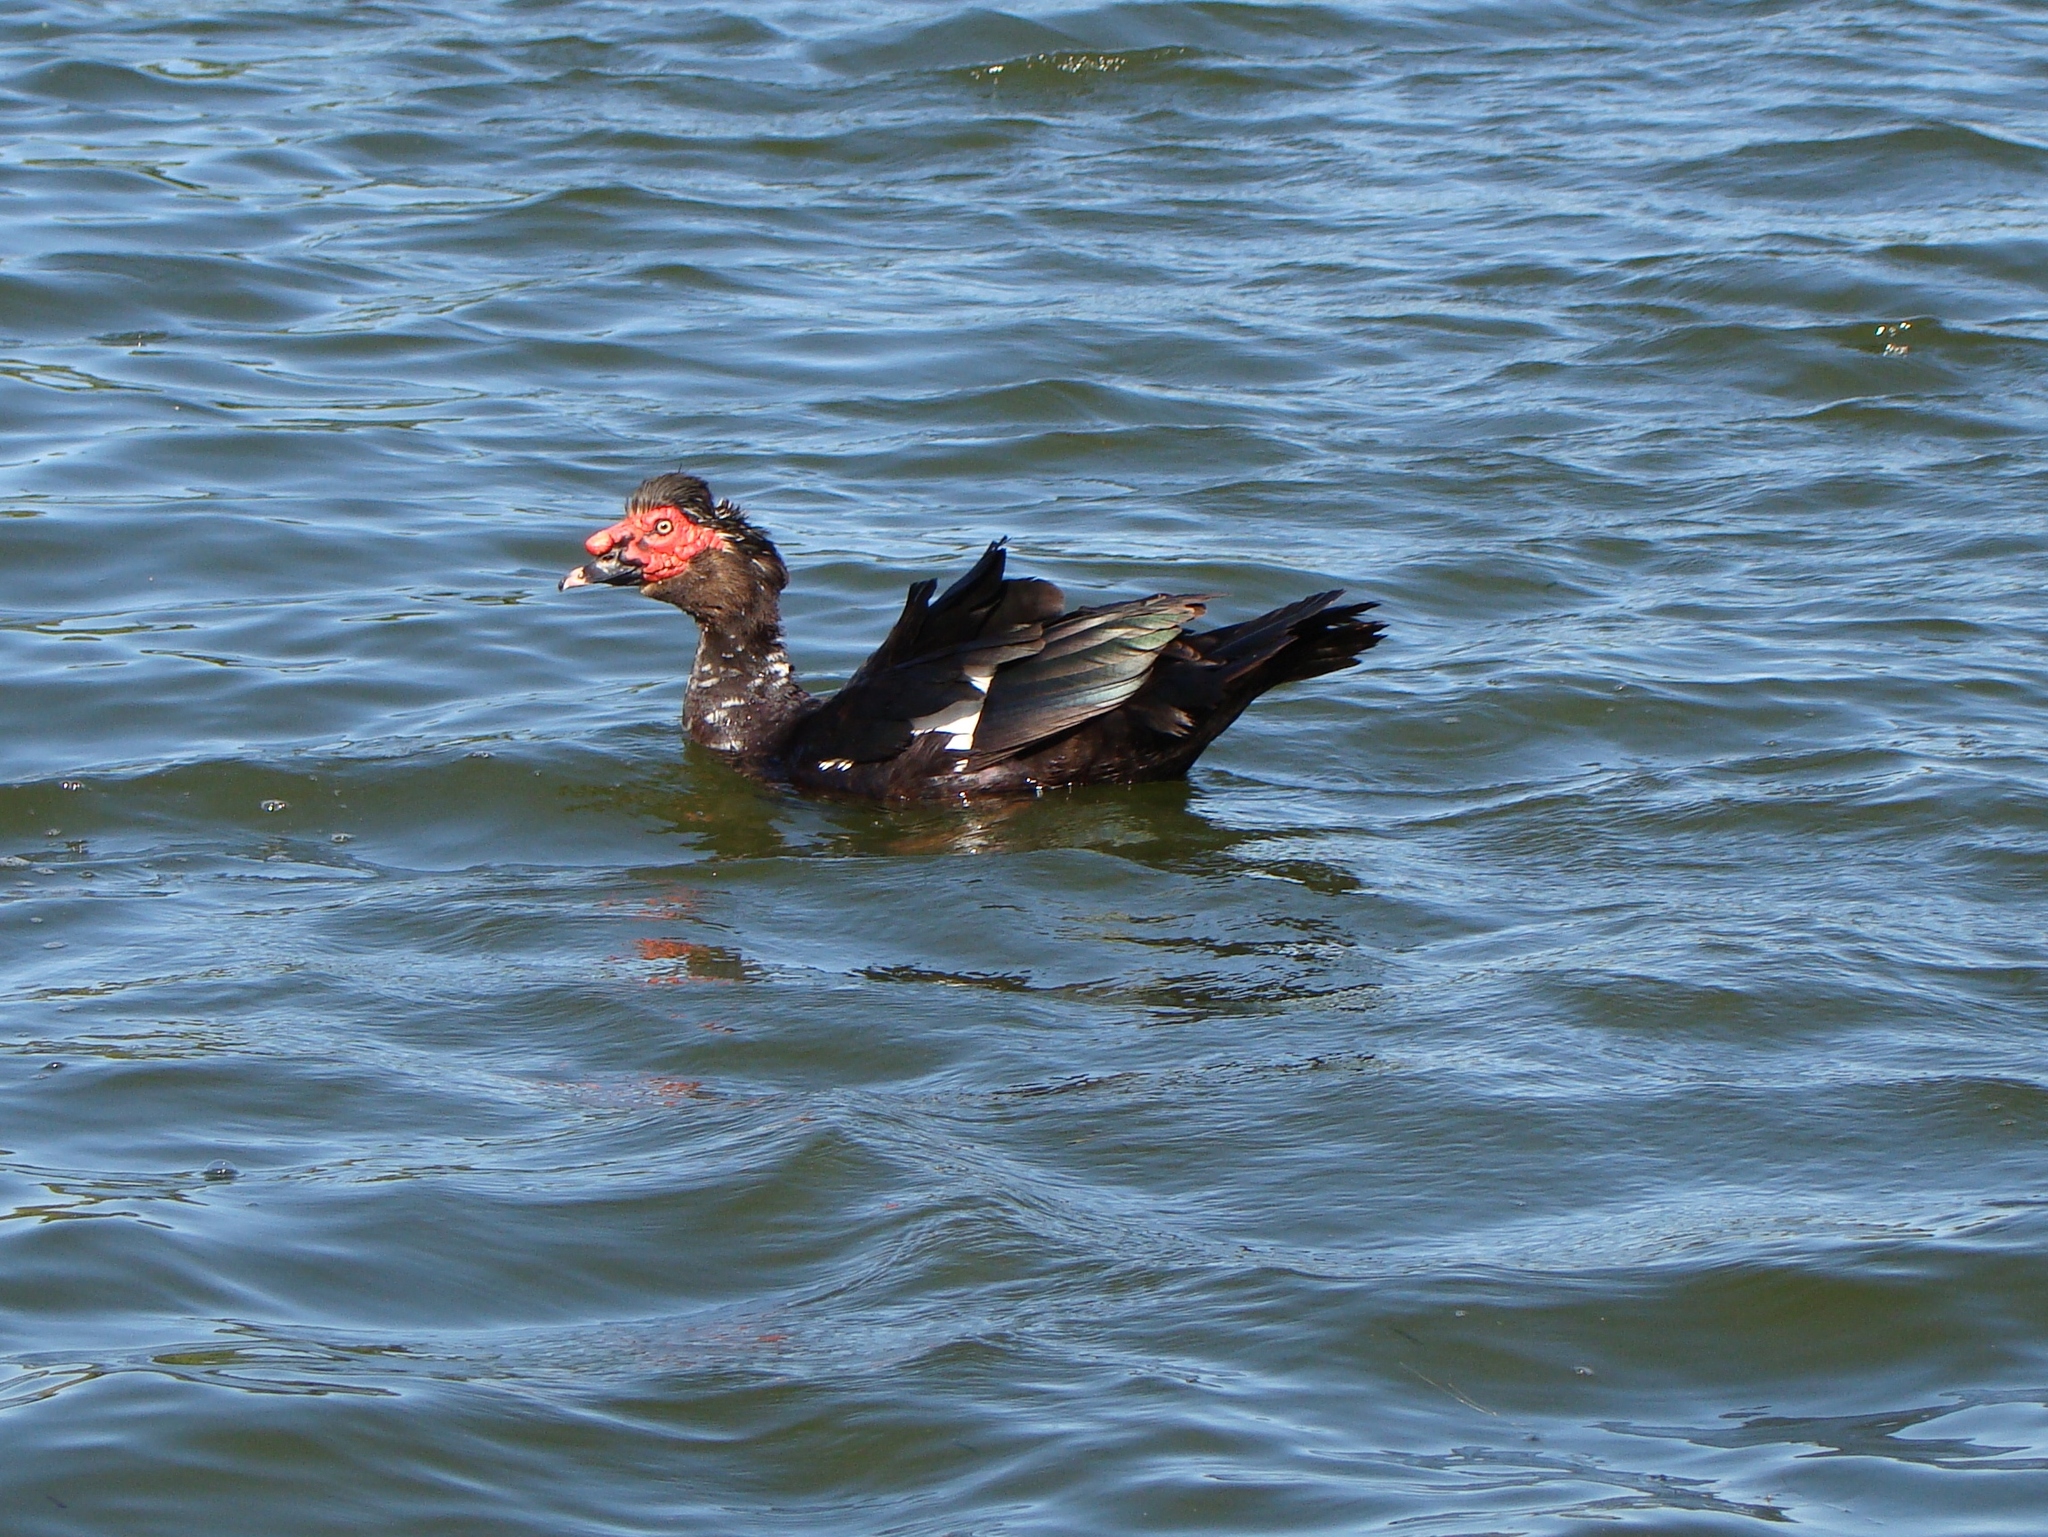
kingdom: Animalia
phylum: Chordata
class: Aves
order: Anseriformes
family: Anatidae
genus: Cairina
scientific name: Cairina moschata
